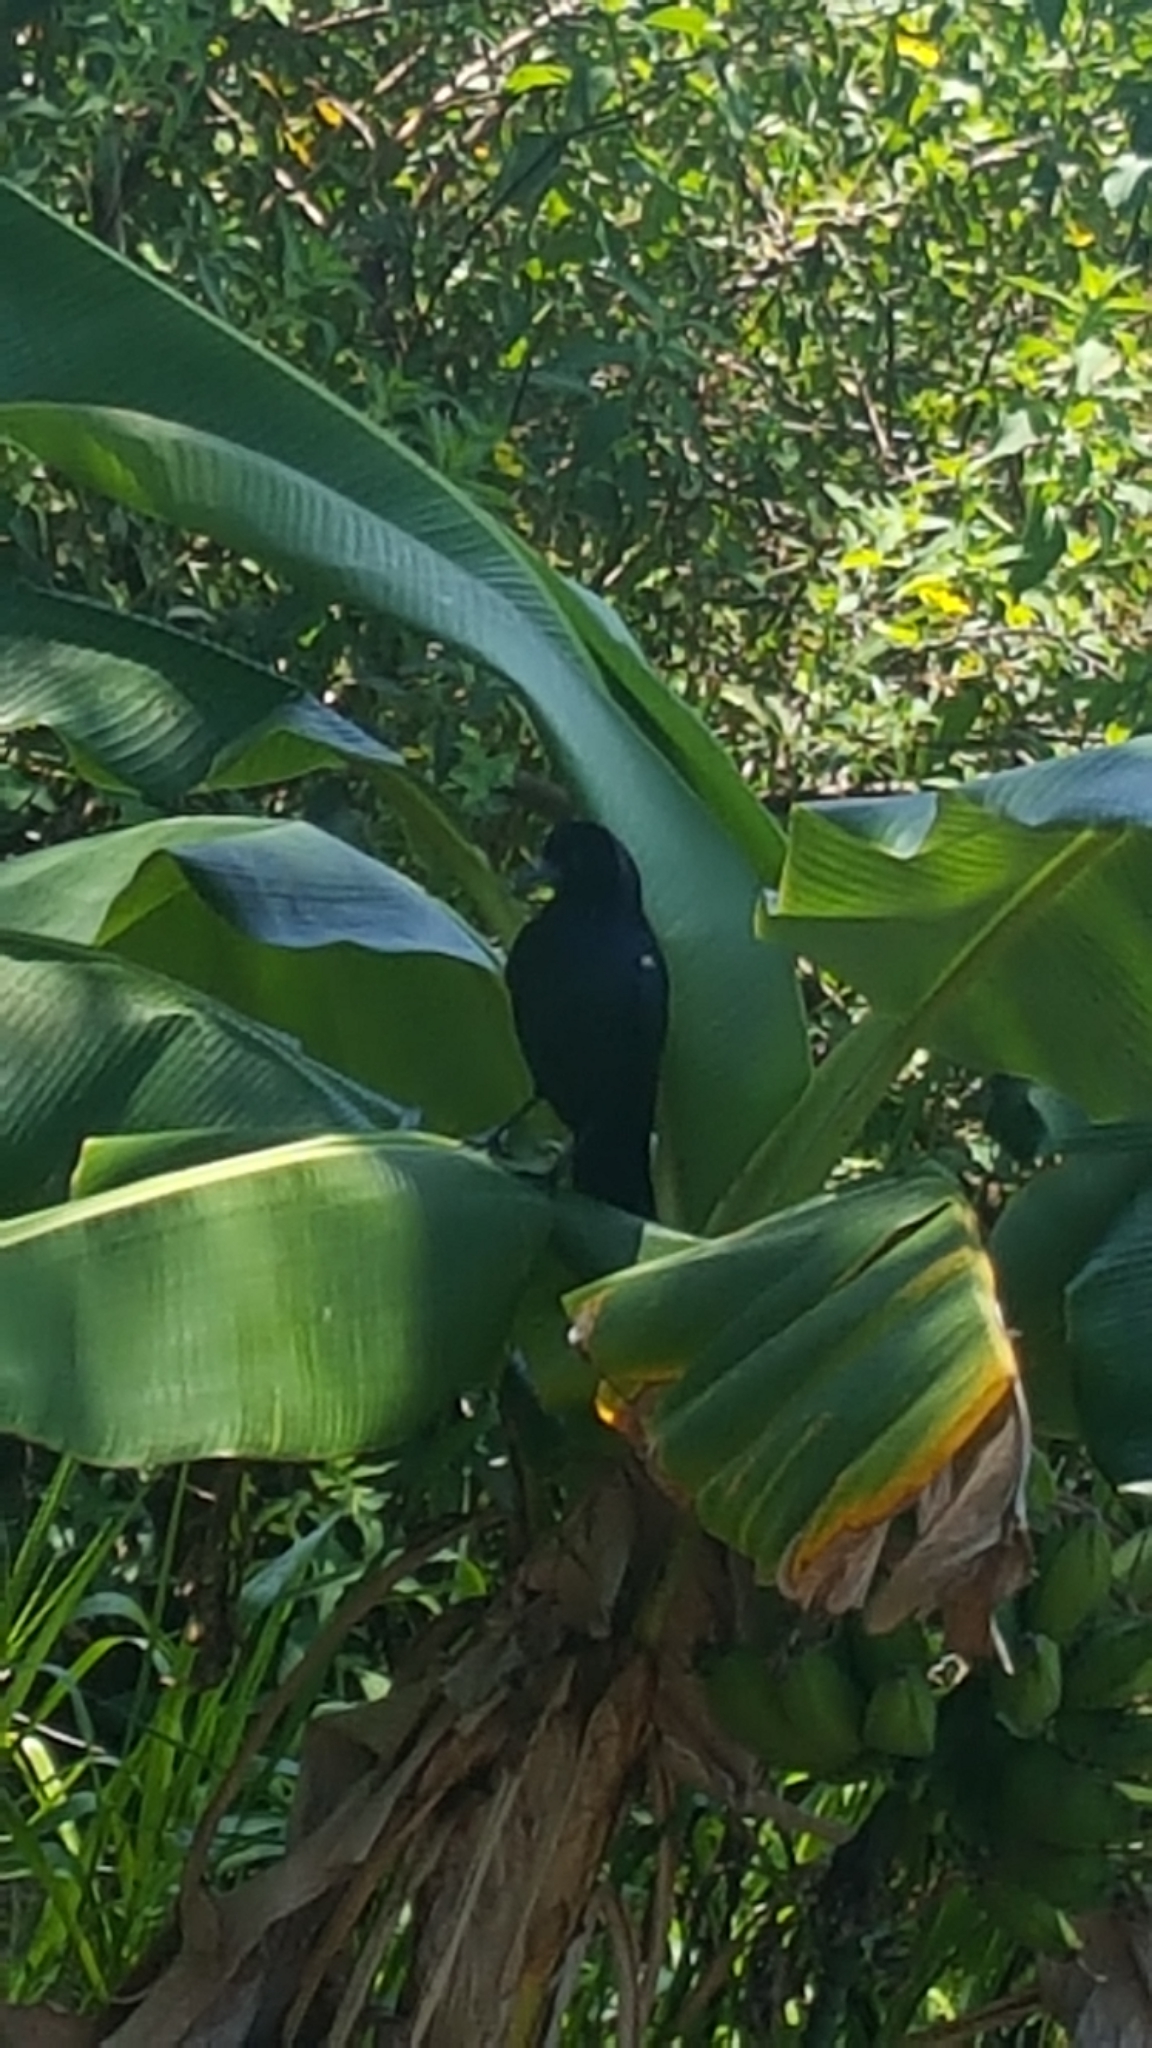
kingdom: Animalia
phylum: Chordata
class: Aves
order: Passeriformes
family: Icteridae
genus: Quiscalus
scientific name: Quiscalus major
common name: Boat-tailed grackle
